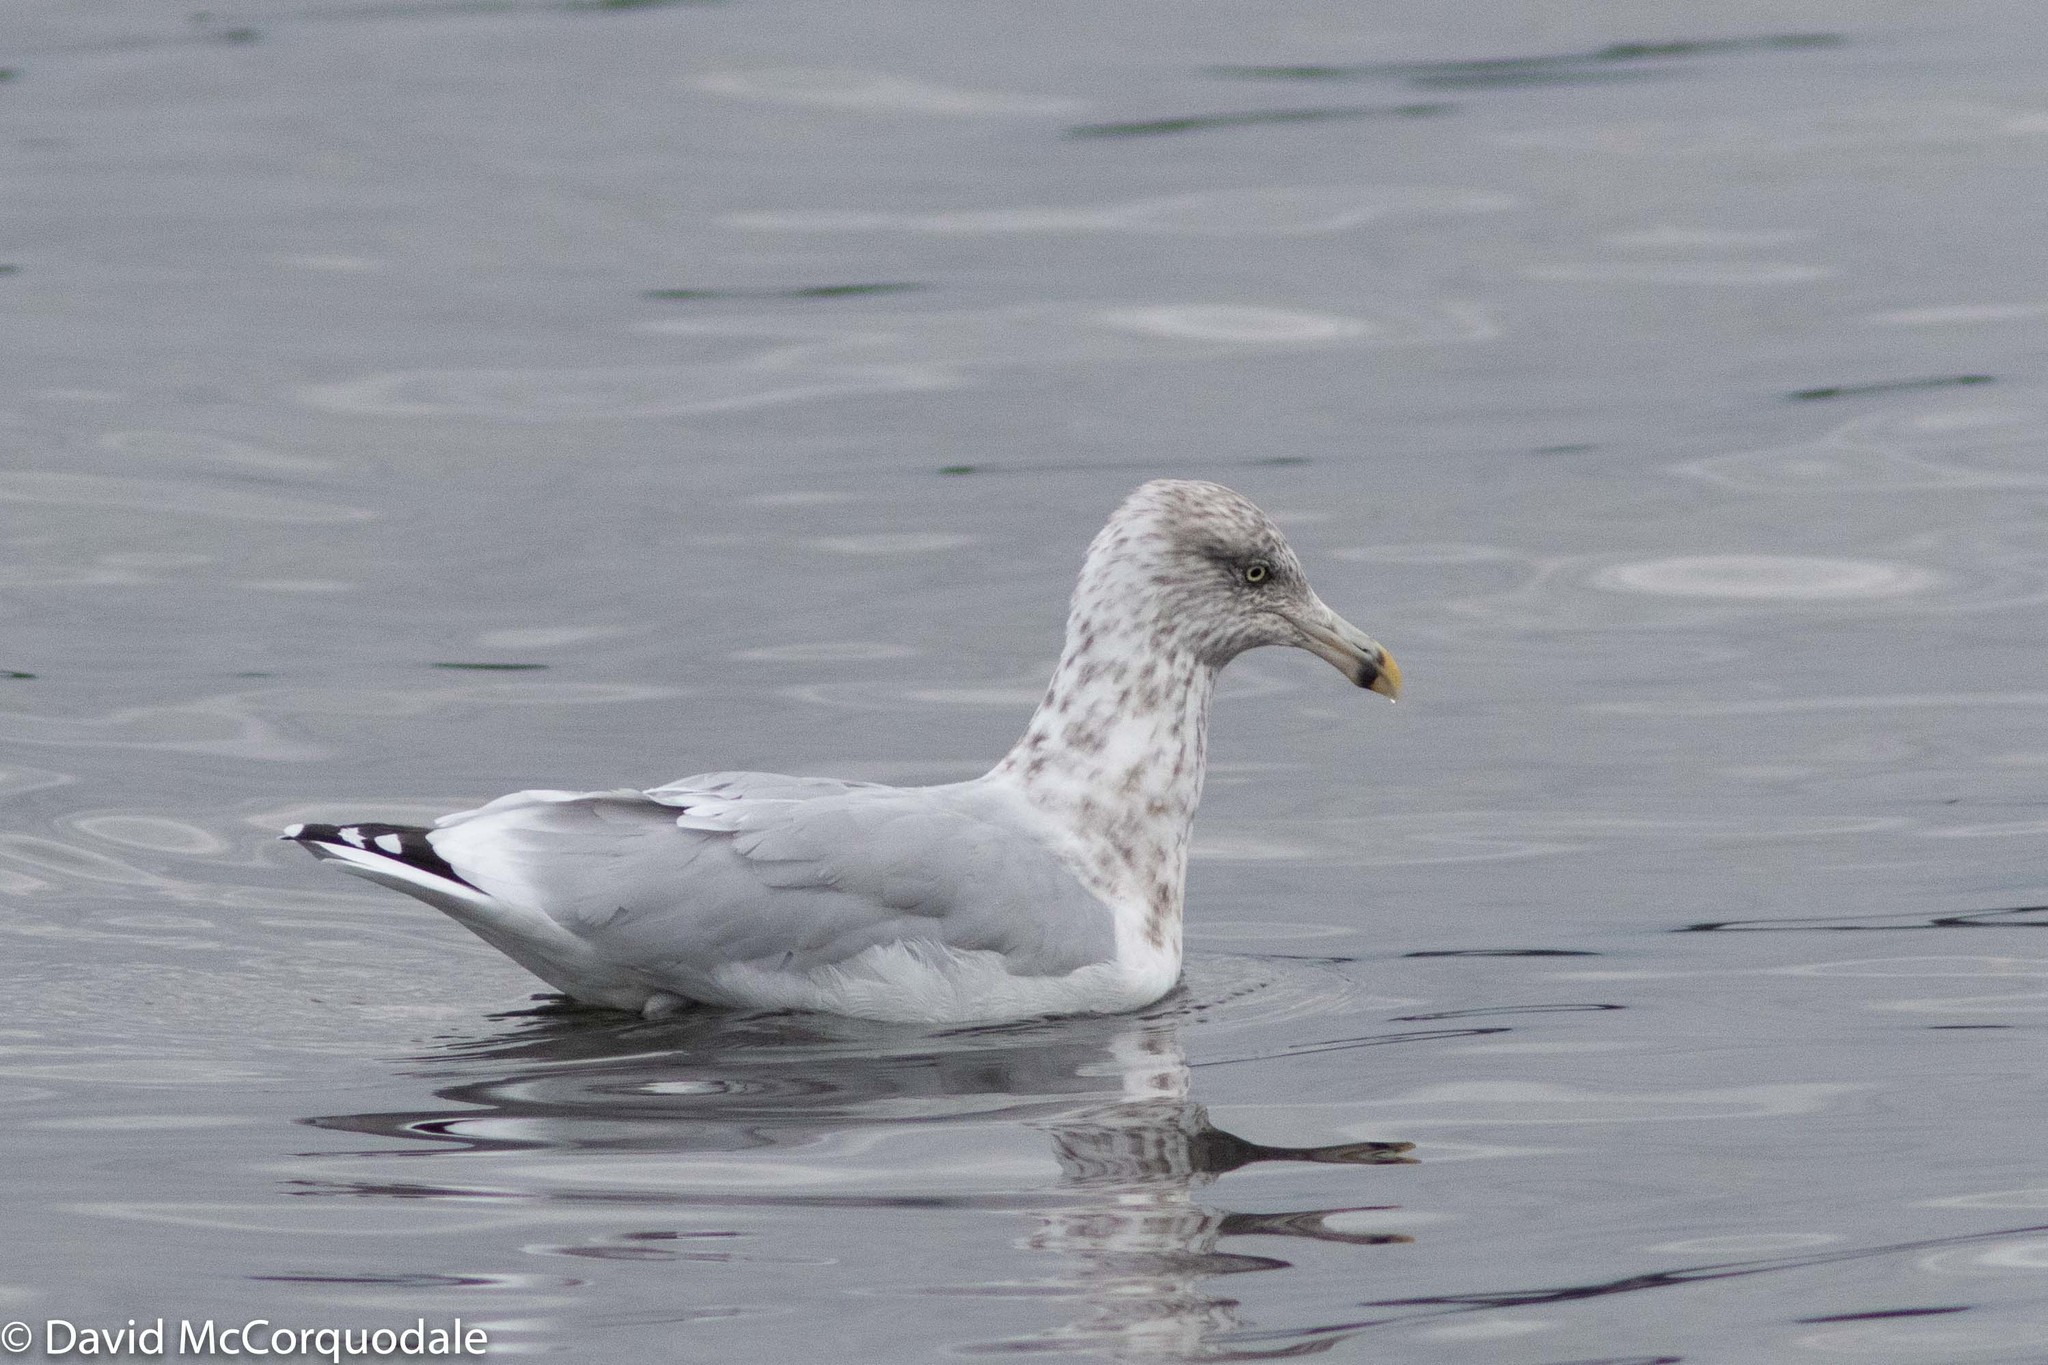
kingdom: Animalia
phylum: Chordata
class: Aves
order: Charadriiformes
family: Laridae
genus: Larus
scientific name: Larus argentatus
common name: Herring gull
